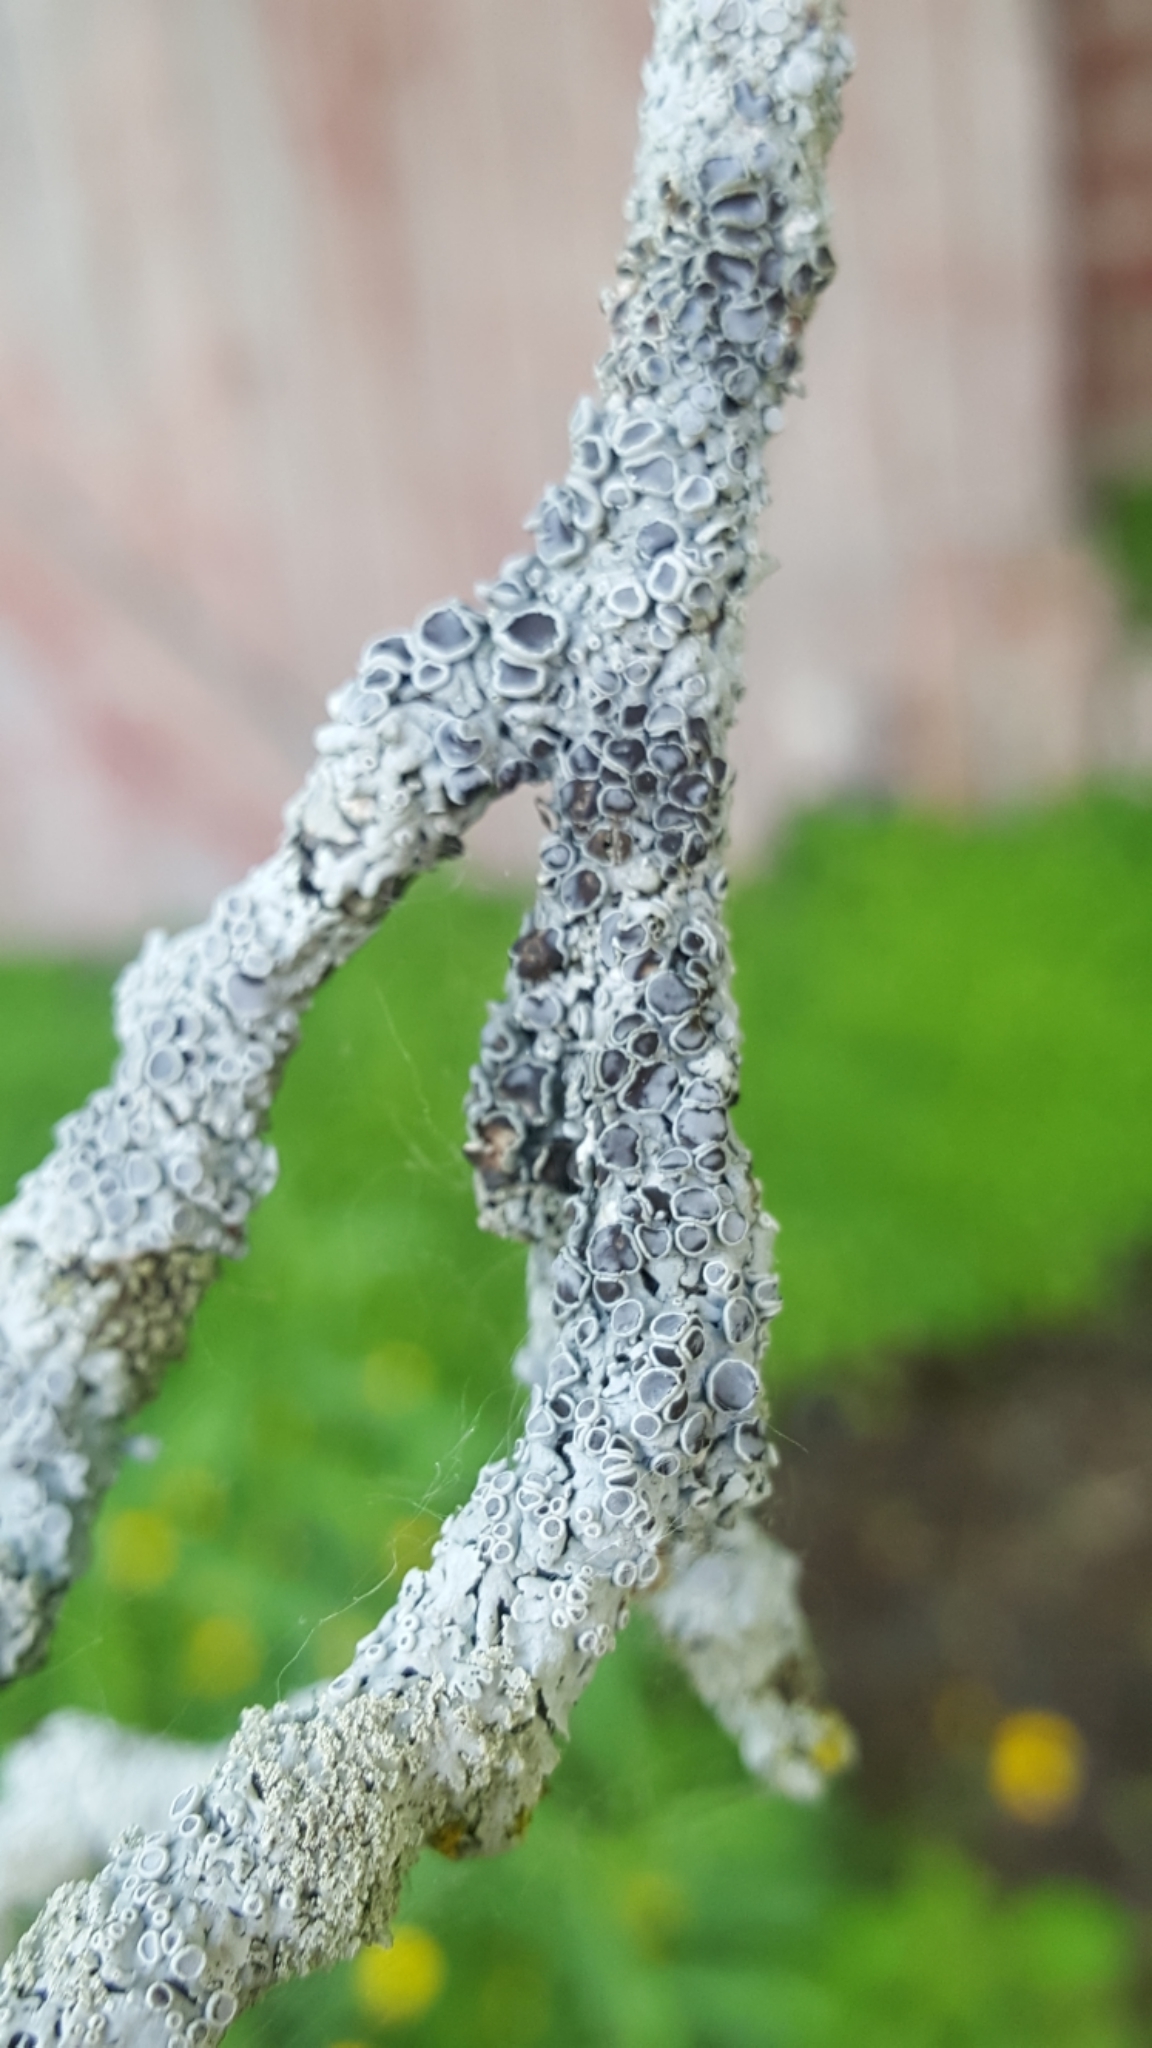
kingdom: Fungi
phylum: Ascomycota
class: Lecanoromycetes
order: Caliciales
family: Physciaceae
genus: Physcia
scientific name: Physcia stellaris
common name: Star rosette lichen
